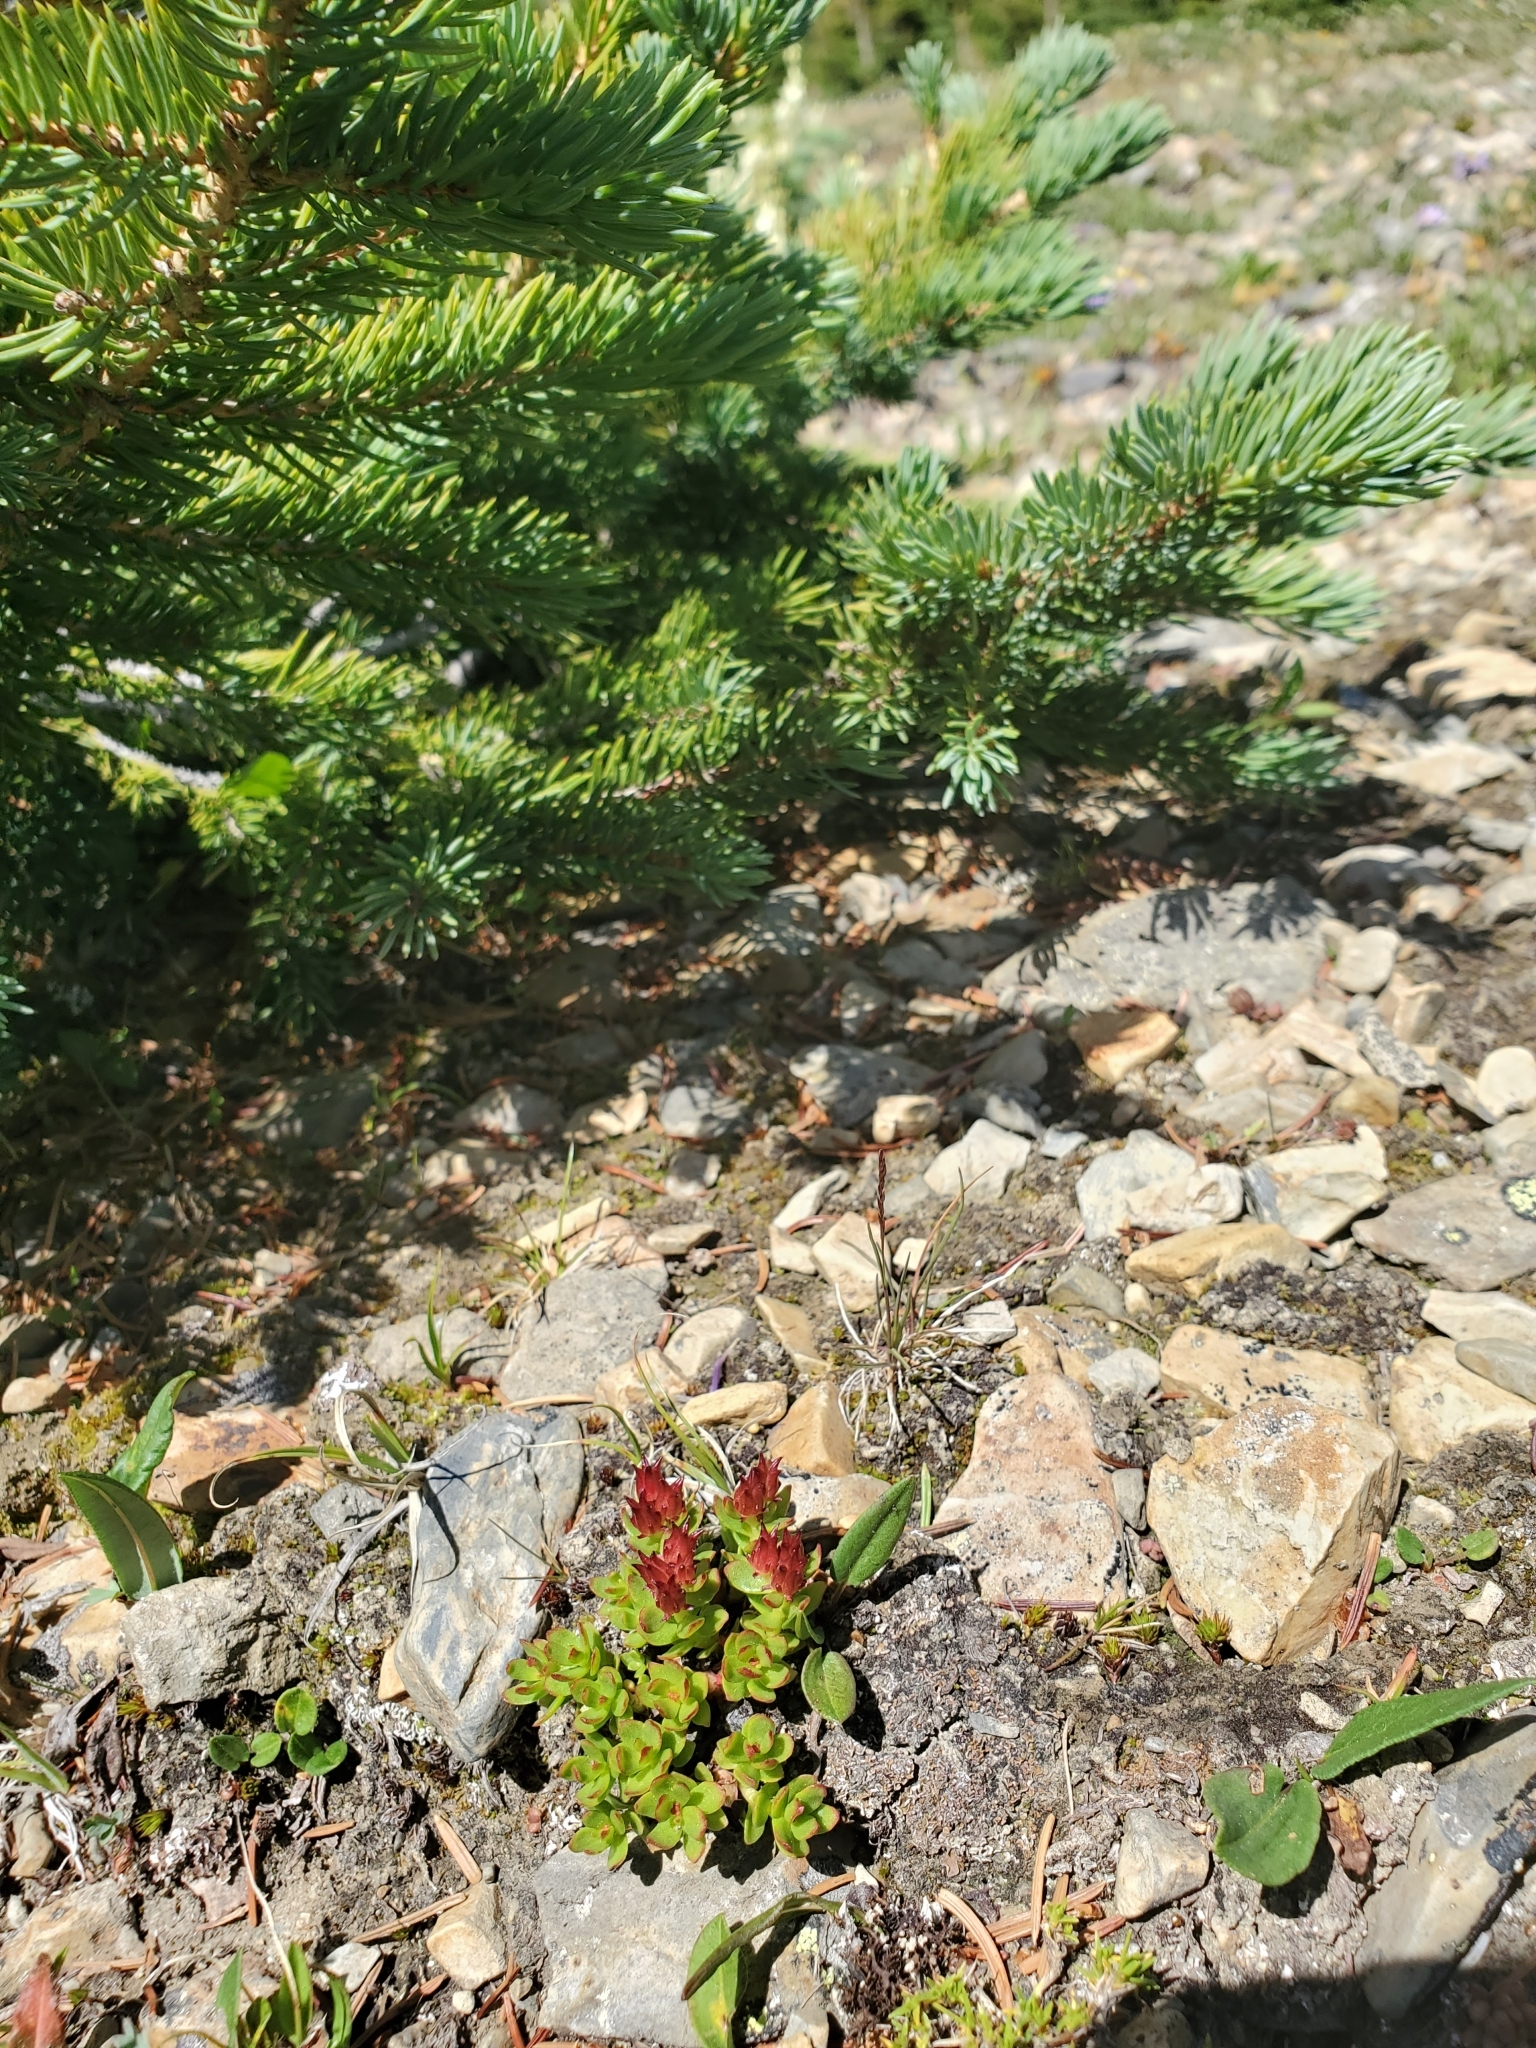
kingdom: Plantae
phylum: Tracheophyta
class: Magnoliopsida
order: Saxifragales
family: Crassulaceae
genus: Rhodiola
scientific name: Rhodiola integrifolia
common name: Western roseroot
